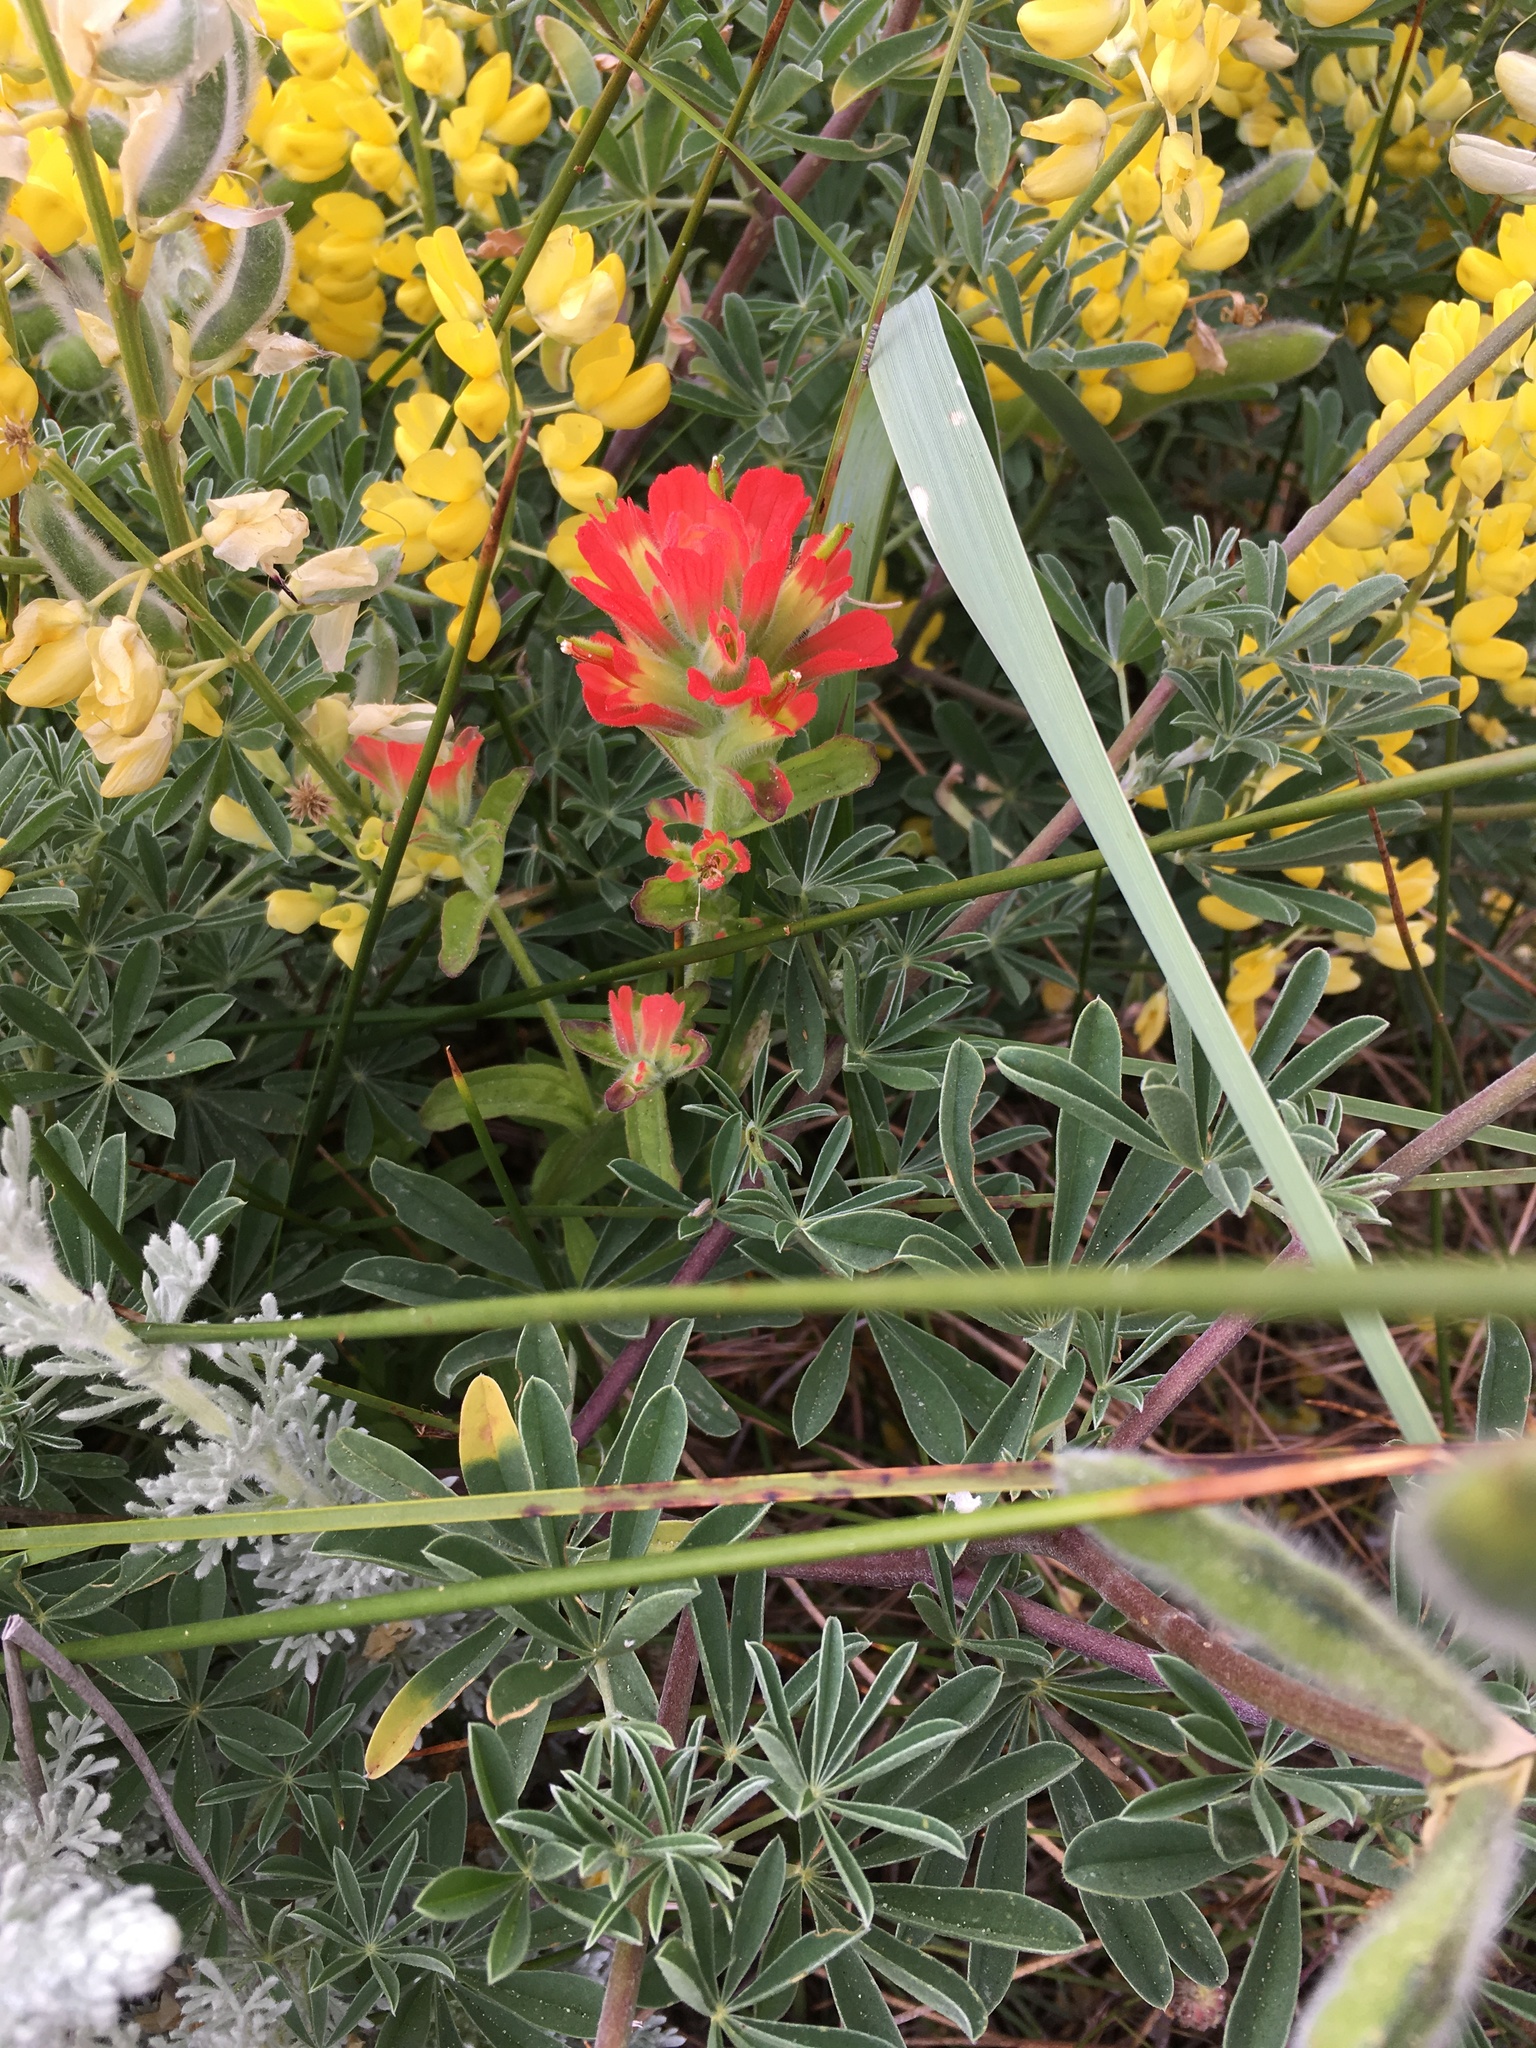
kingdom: Plantae
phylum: Tracheophyta
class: Magnoliopsida
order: Lamiales
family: Orobanchaceae
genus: Castilleja
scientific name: Castilleja affinis
